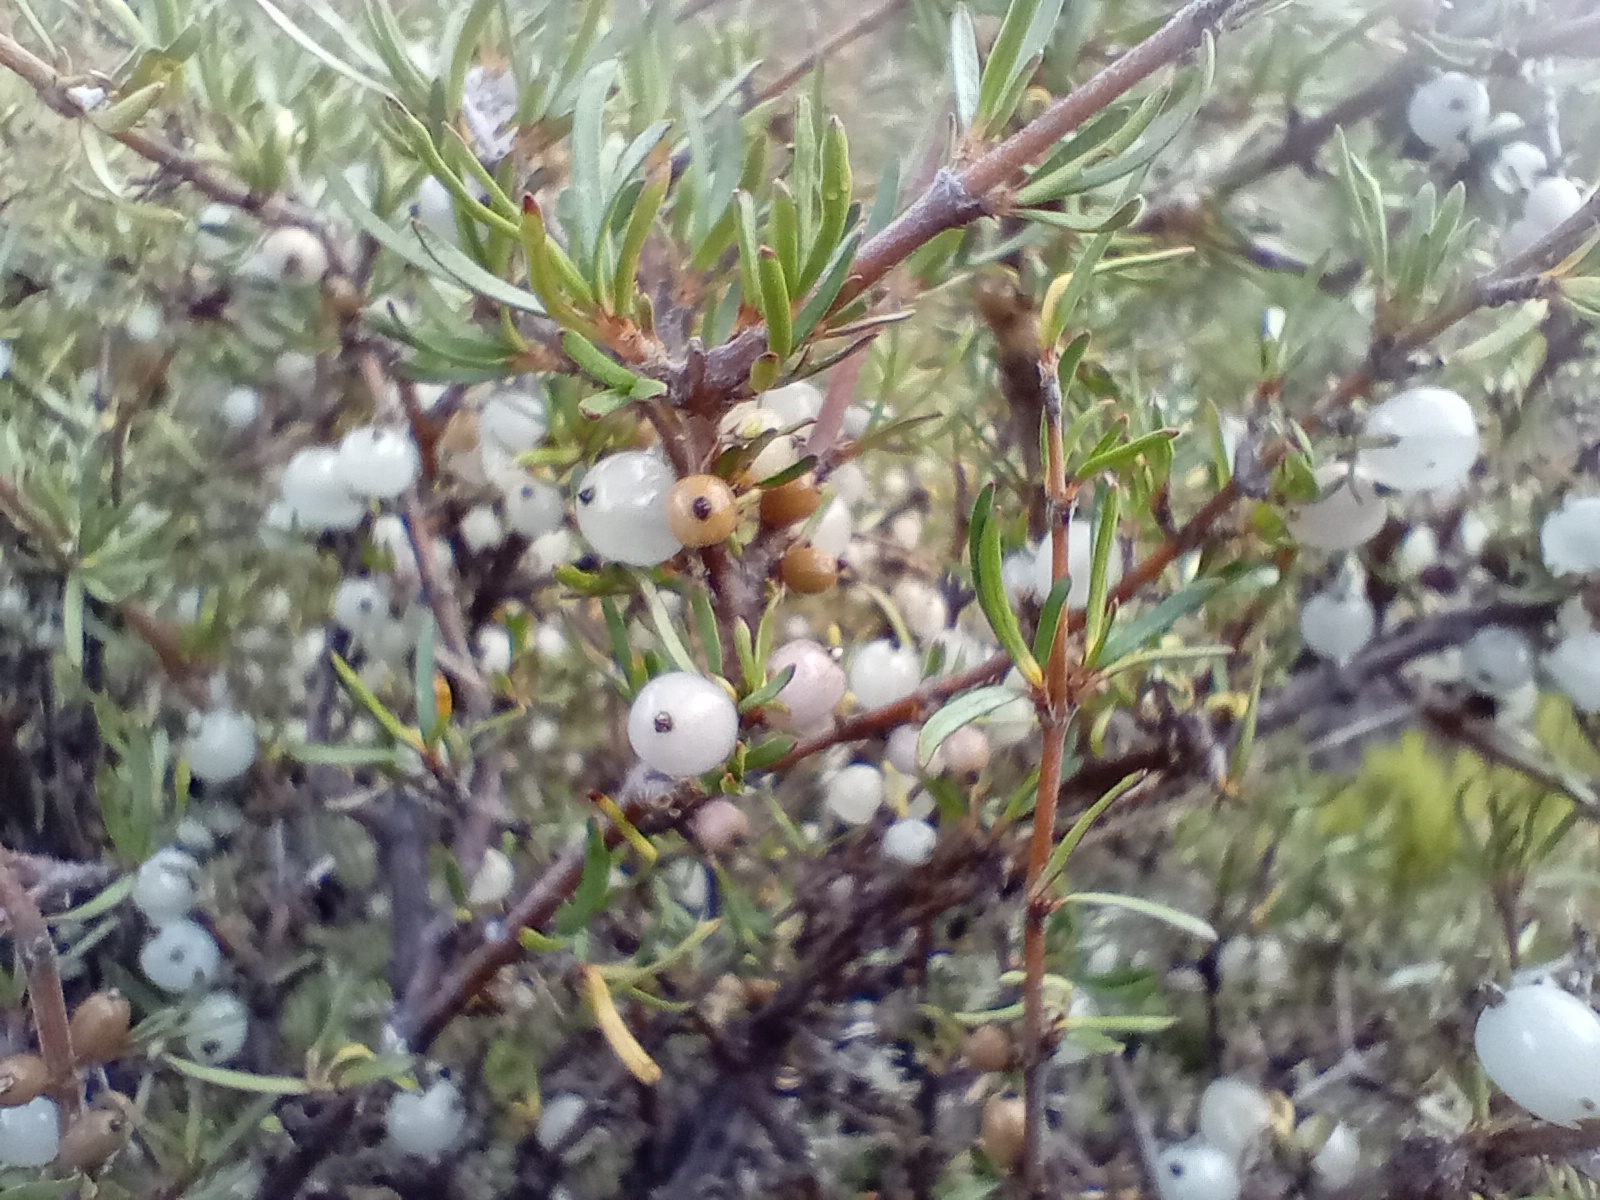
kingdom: Plantae
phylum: Tracheophyta
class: Magnoliopsida
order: Gentianales
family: Rubiaceae
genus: Coprosma
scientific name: Coprosma rugosa
